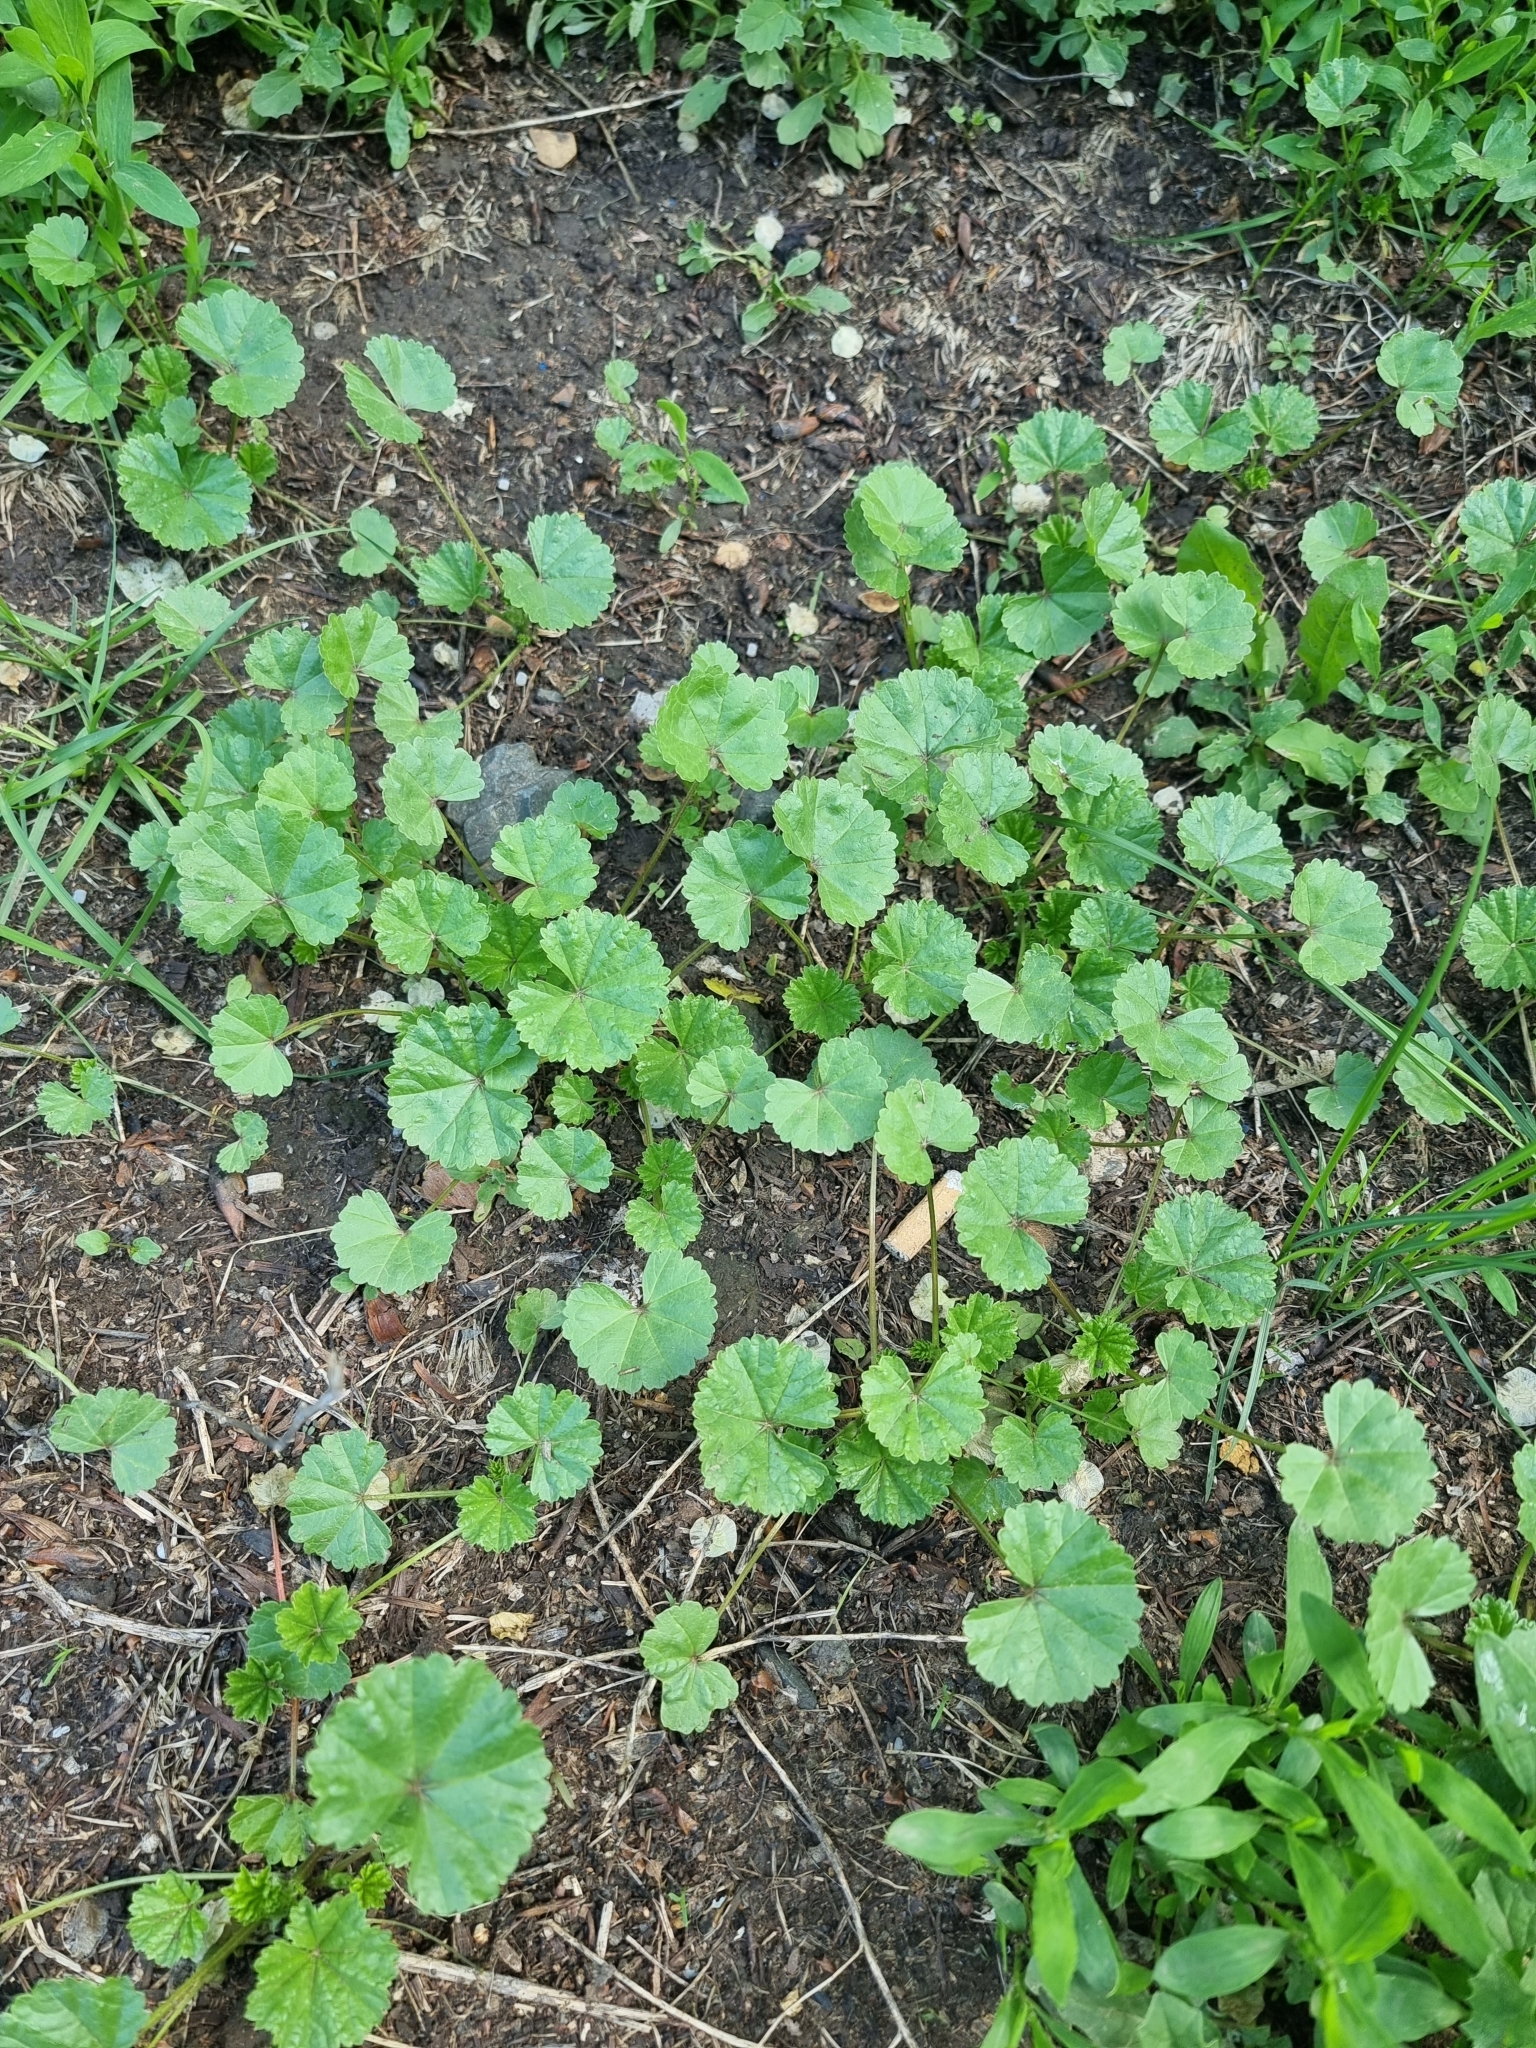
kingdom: Plantae
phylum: Tracheophyta
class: Magnoliopsida
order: Malvales
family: Malvaceae
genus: Malva
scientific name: Malva pusilla
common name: Small mallow
